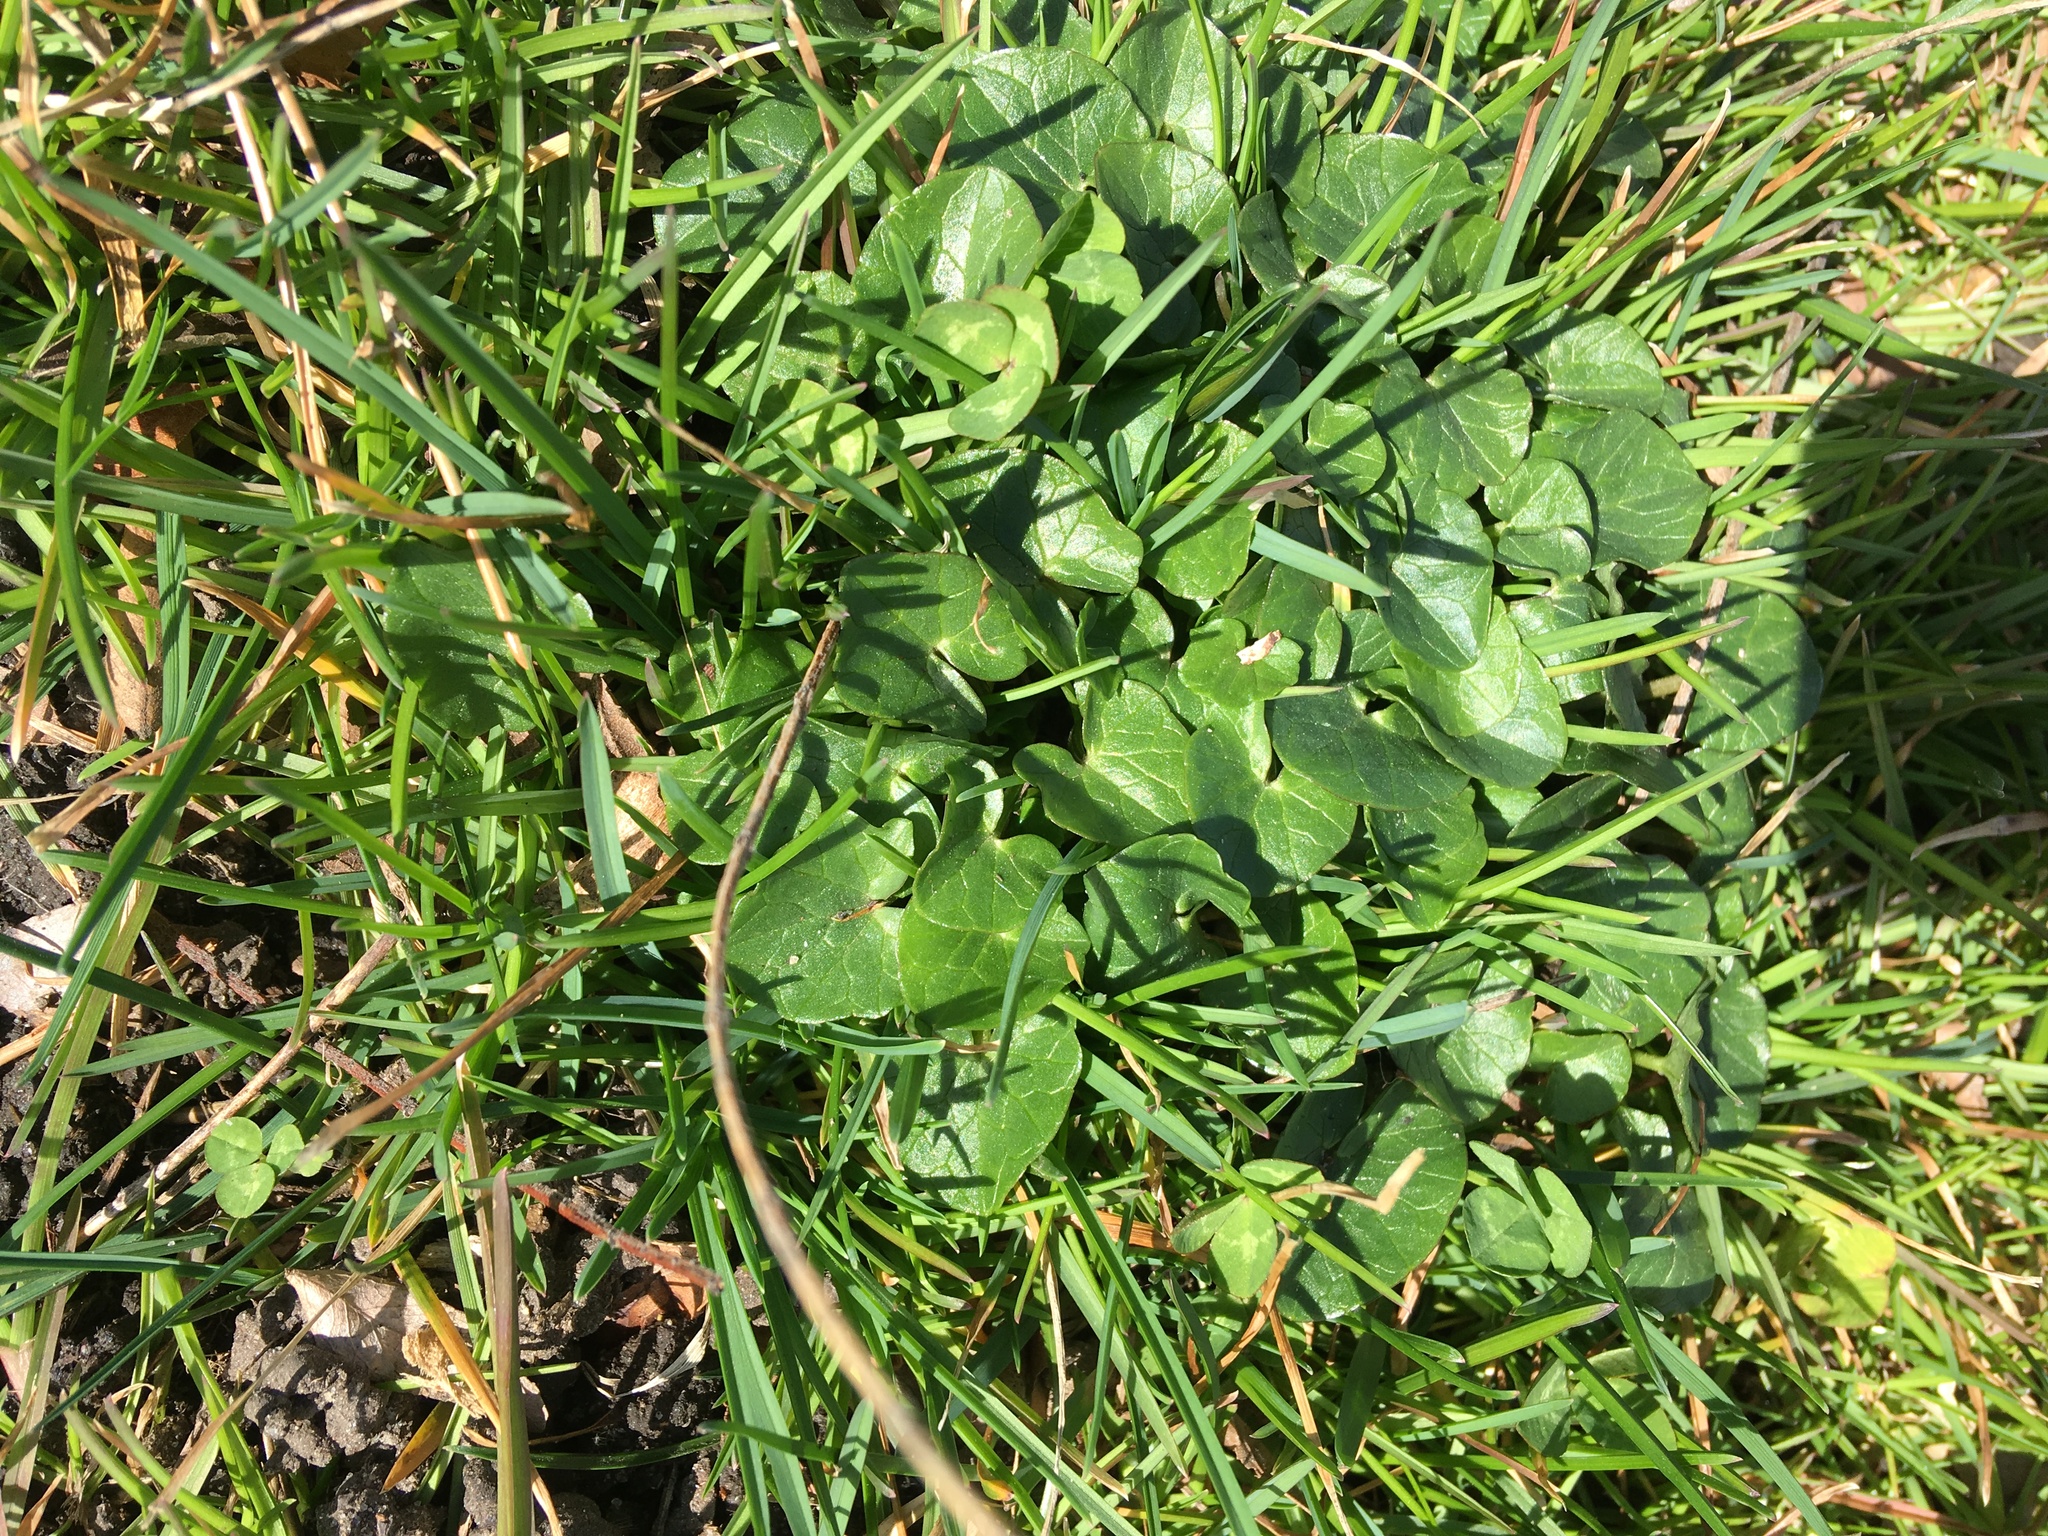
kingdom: Plantae
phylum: Tracheophyta
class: Magnoliopsida
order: Ranunculales
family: Ranunculaceae
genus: Ficaria
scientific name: Ficaria verna
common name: Lesser celandine
